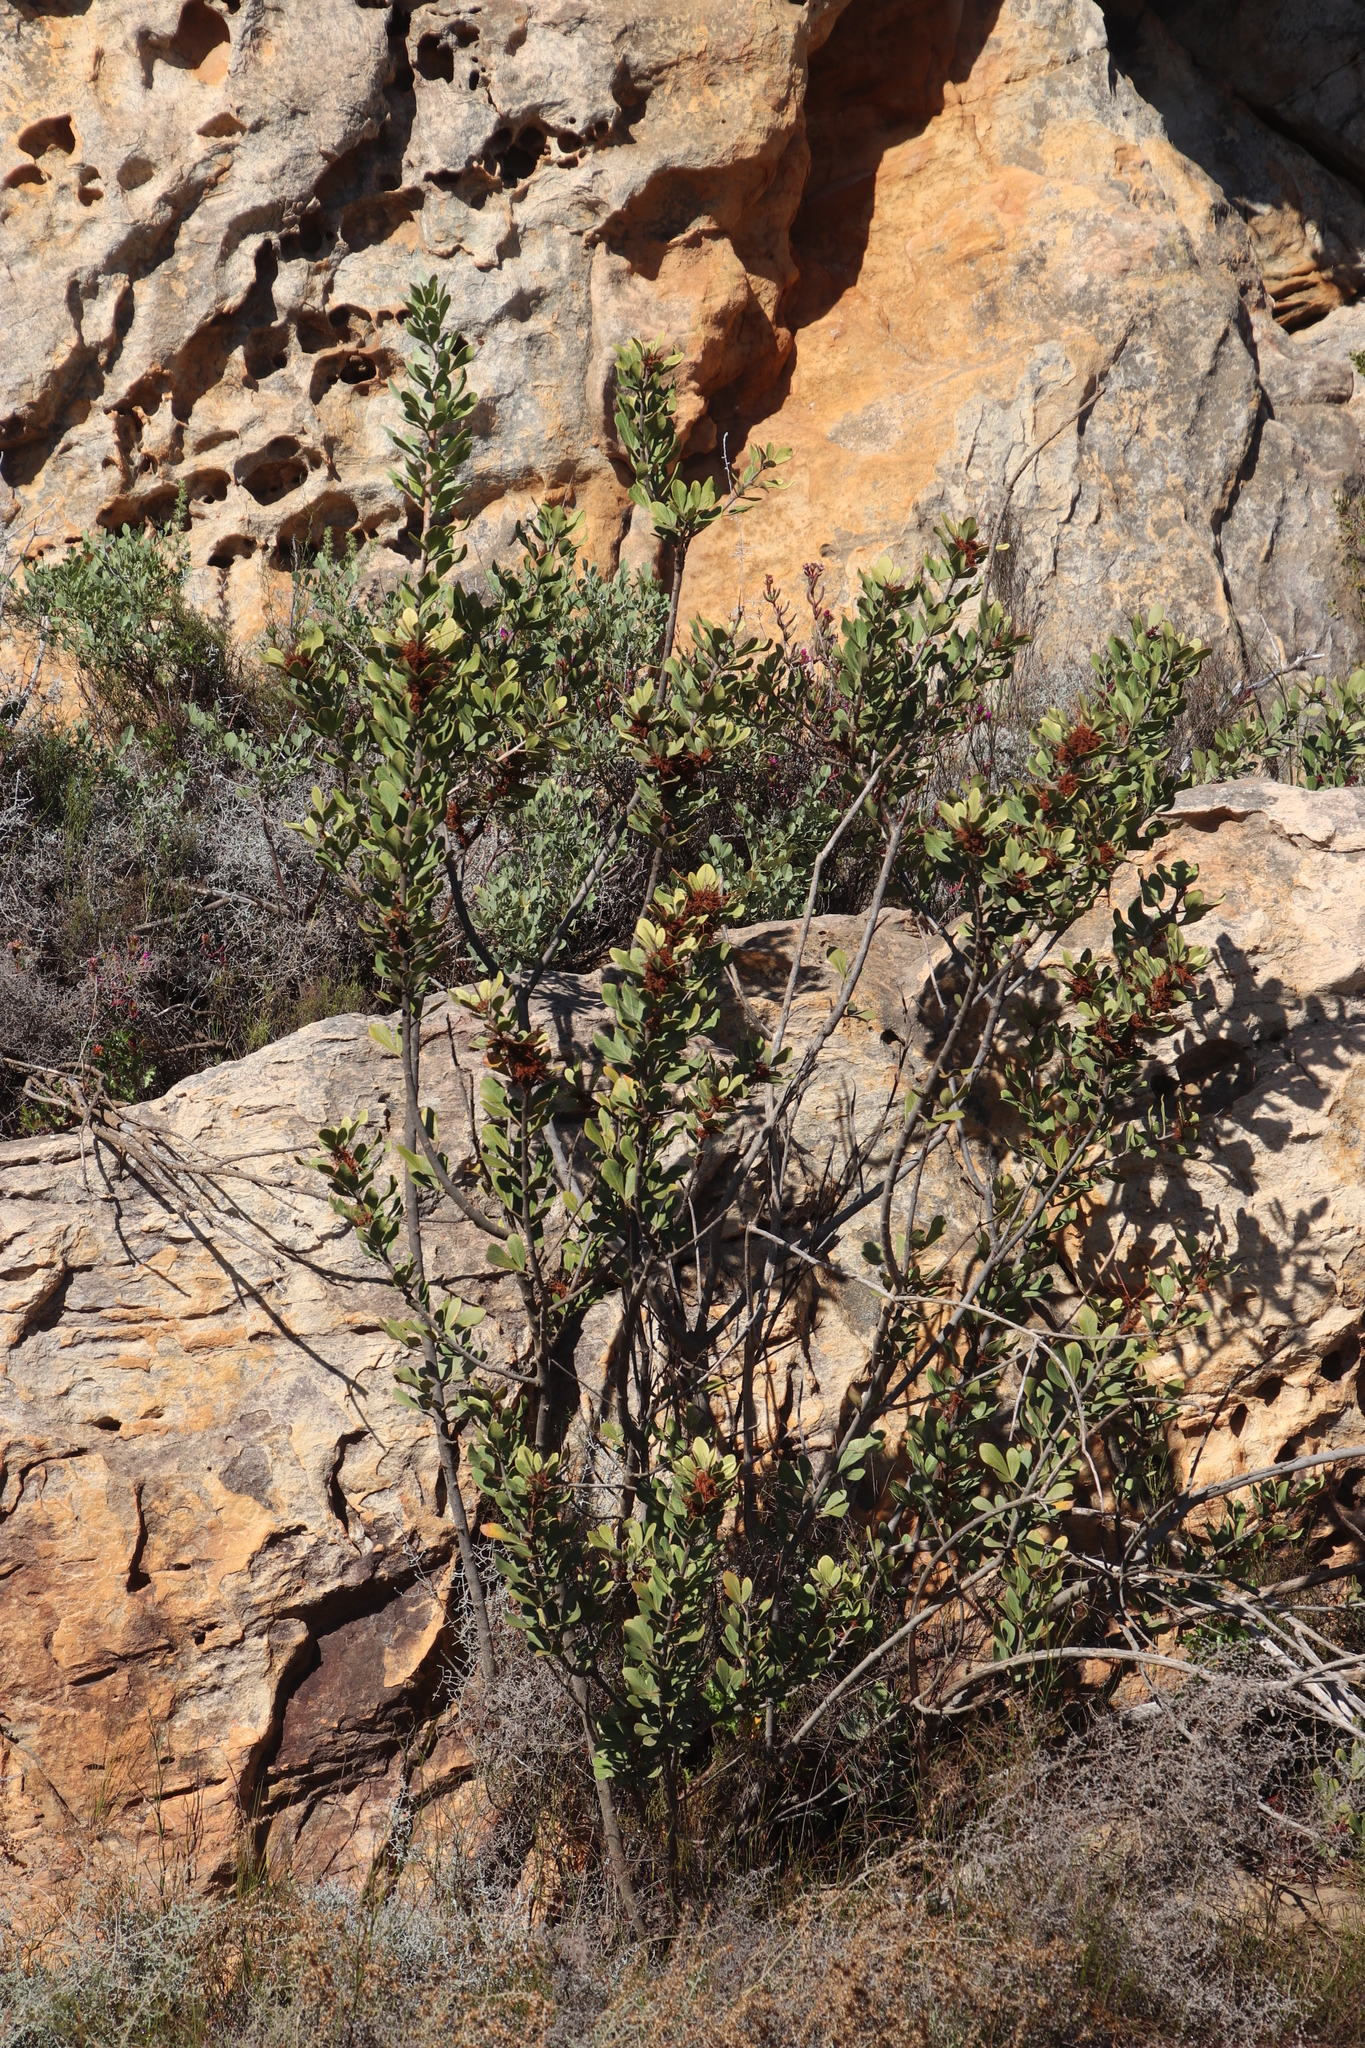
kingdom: Plantae
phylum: Tracheophyta
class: Magnoliopsida
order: Sapindales
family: Anacardiaceae
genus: Searsia
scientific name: Searsia scytophylla
